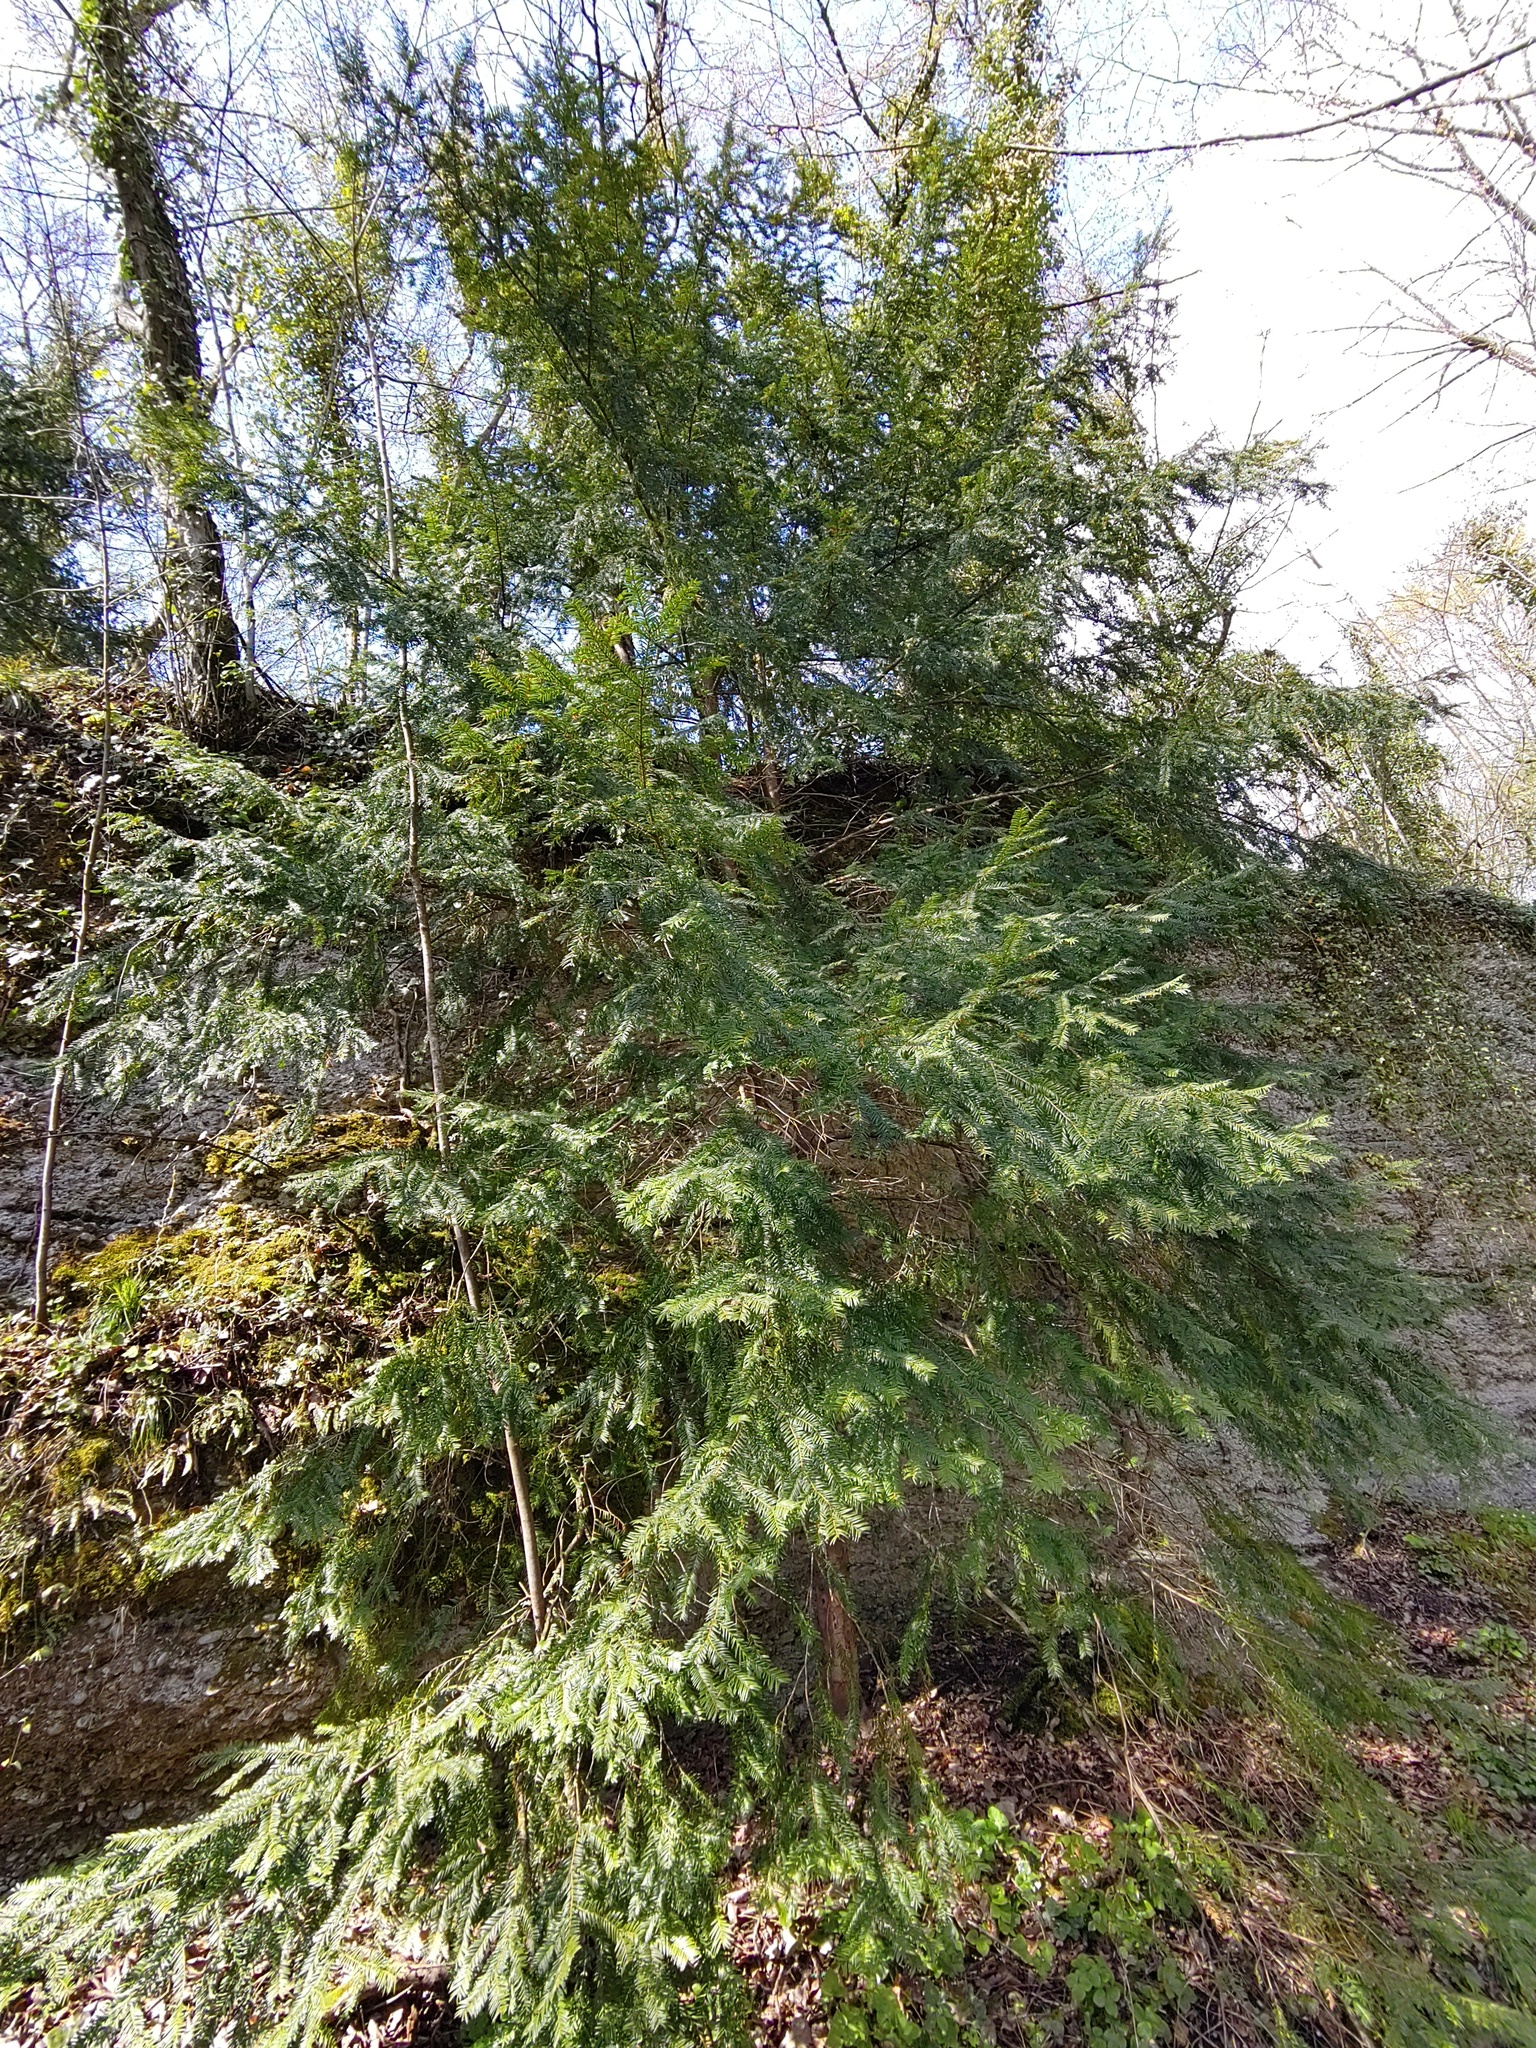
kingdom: Plantae
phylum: Tracheophyta
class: Pinopsida
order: Pinales
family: Taxaceae
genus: Taxus
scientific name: Taxus baccata
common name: Yew
